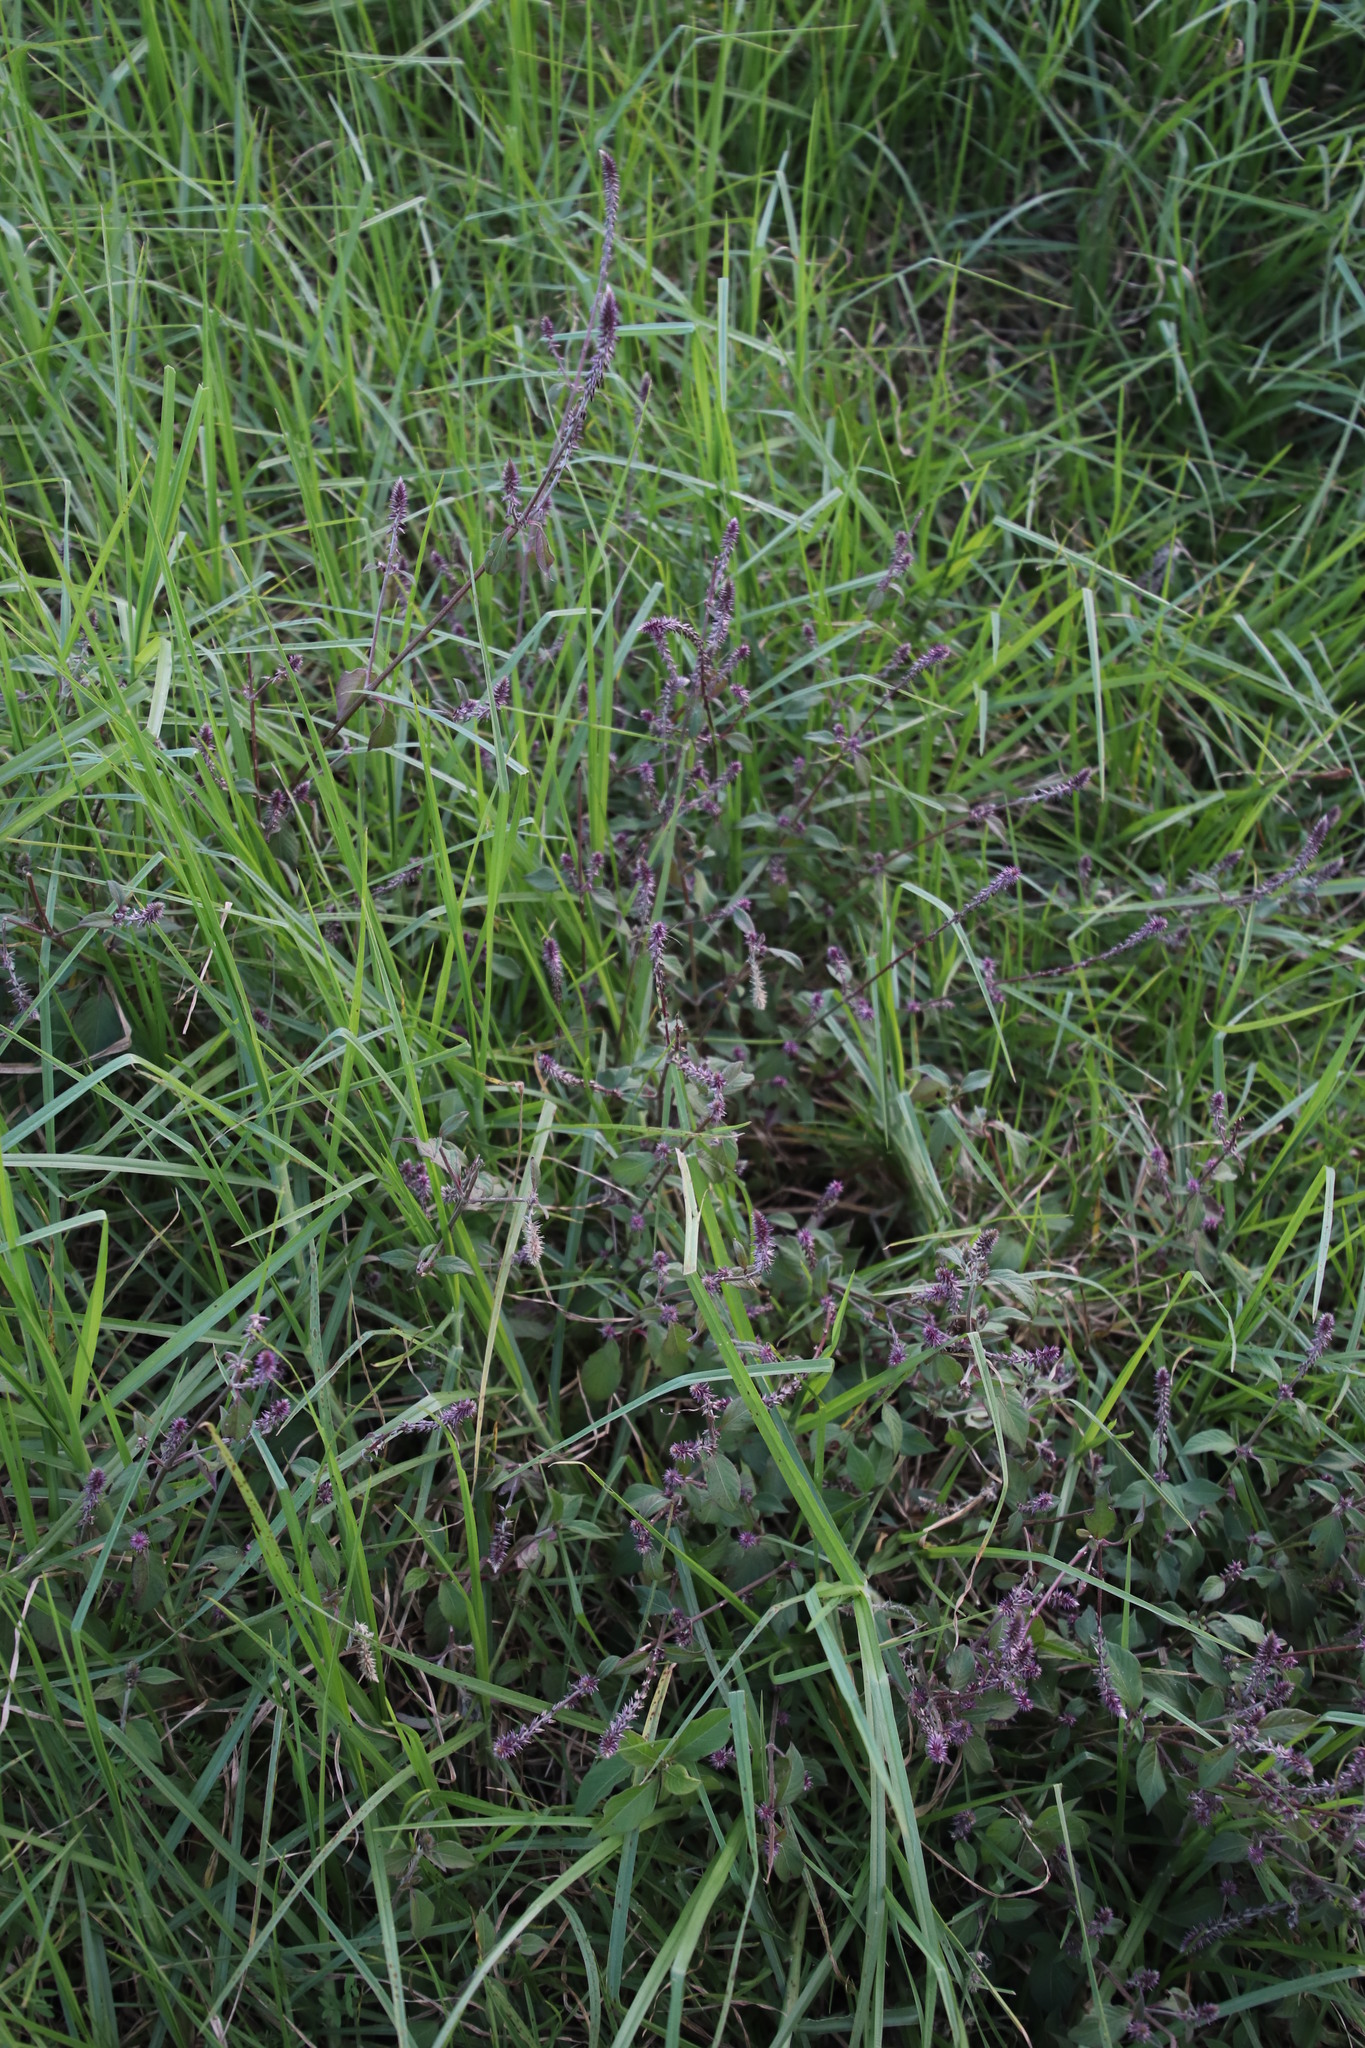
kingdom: Plantae
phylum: Tracheophyta
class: Magnoliopsida
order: Caryophyllales
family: Amaranthaceae
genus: Achyranthes
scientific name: Achyranthes aspera
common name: Devil's horsewhip
